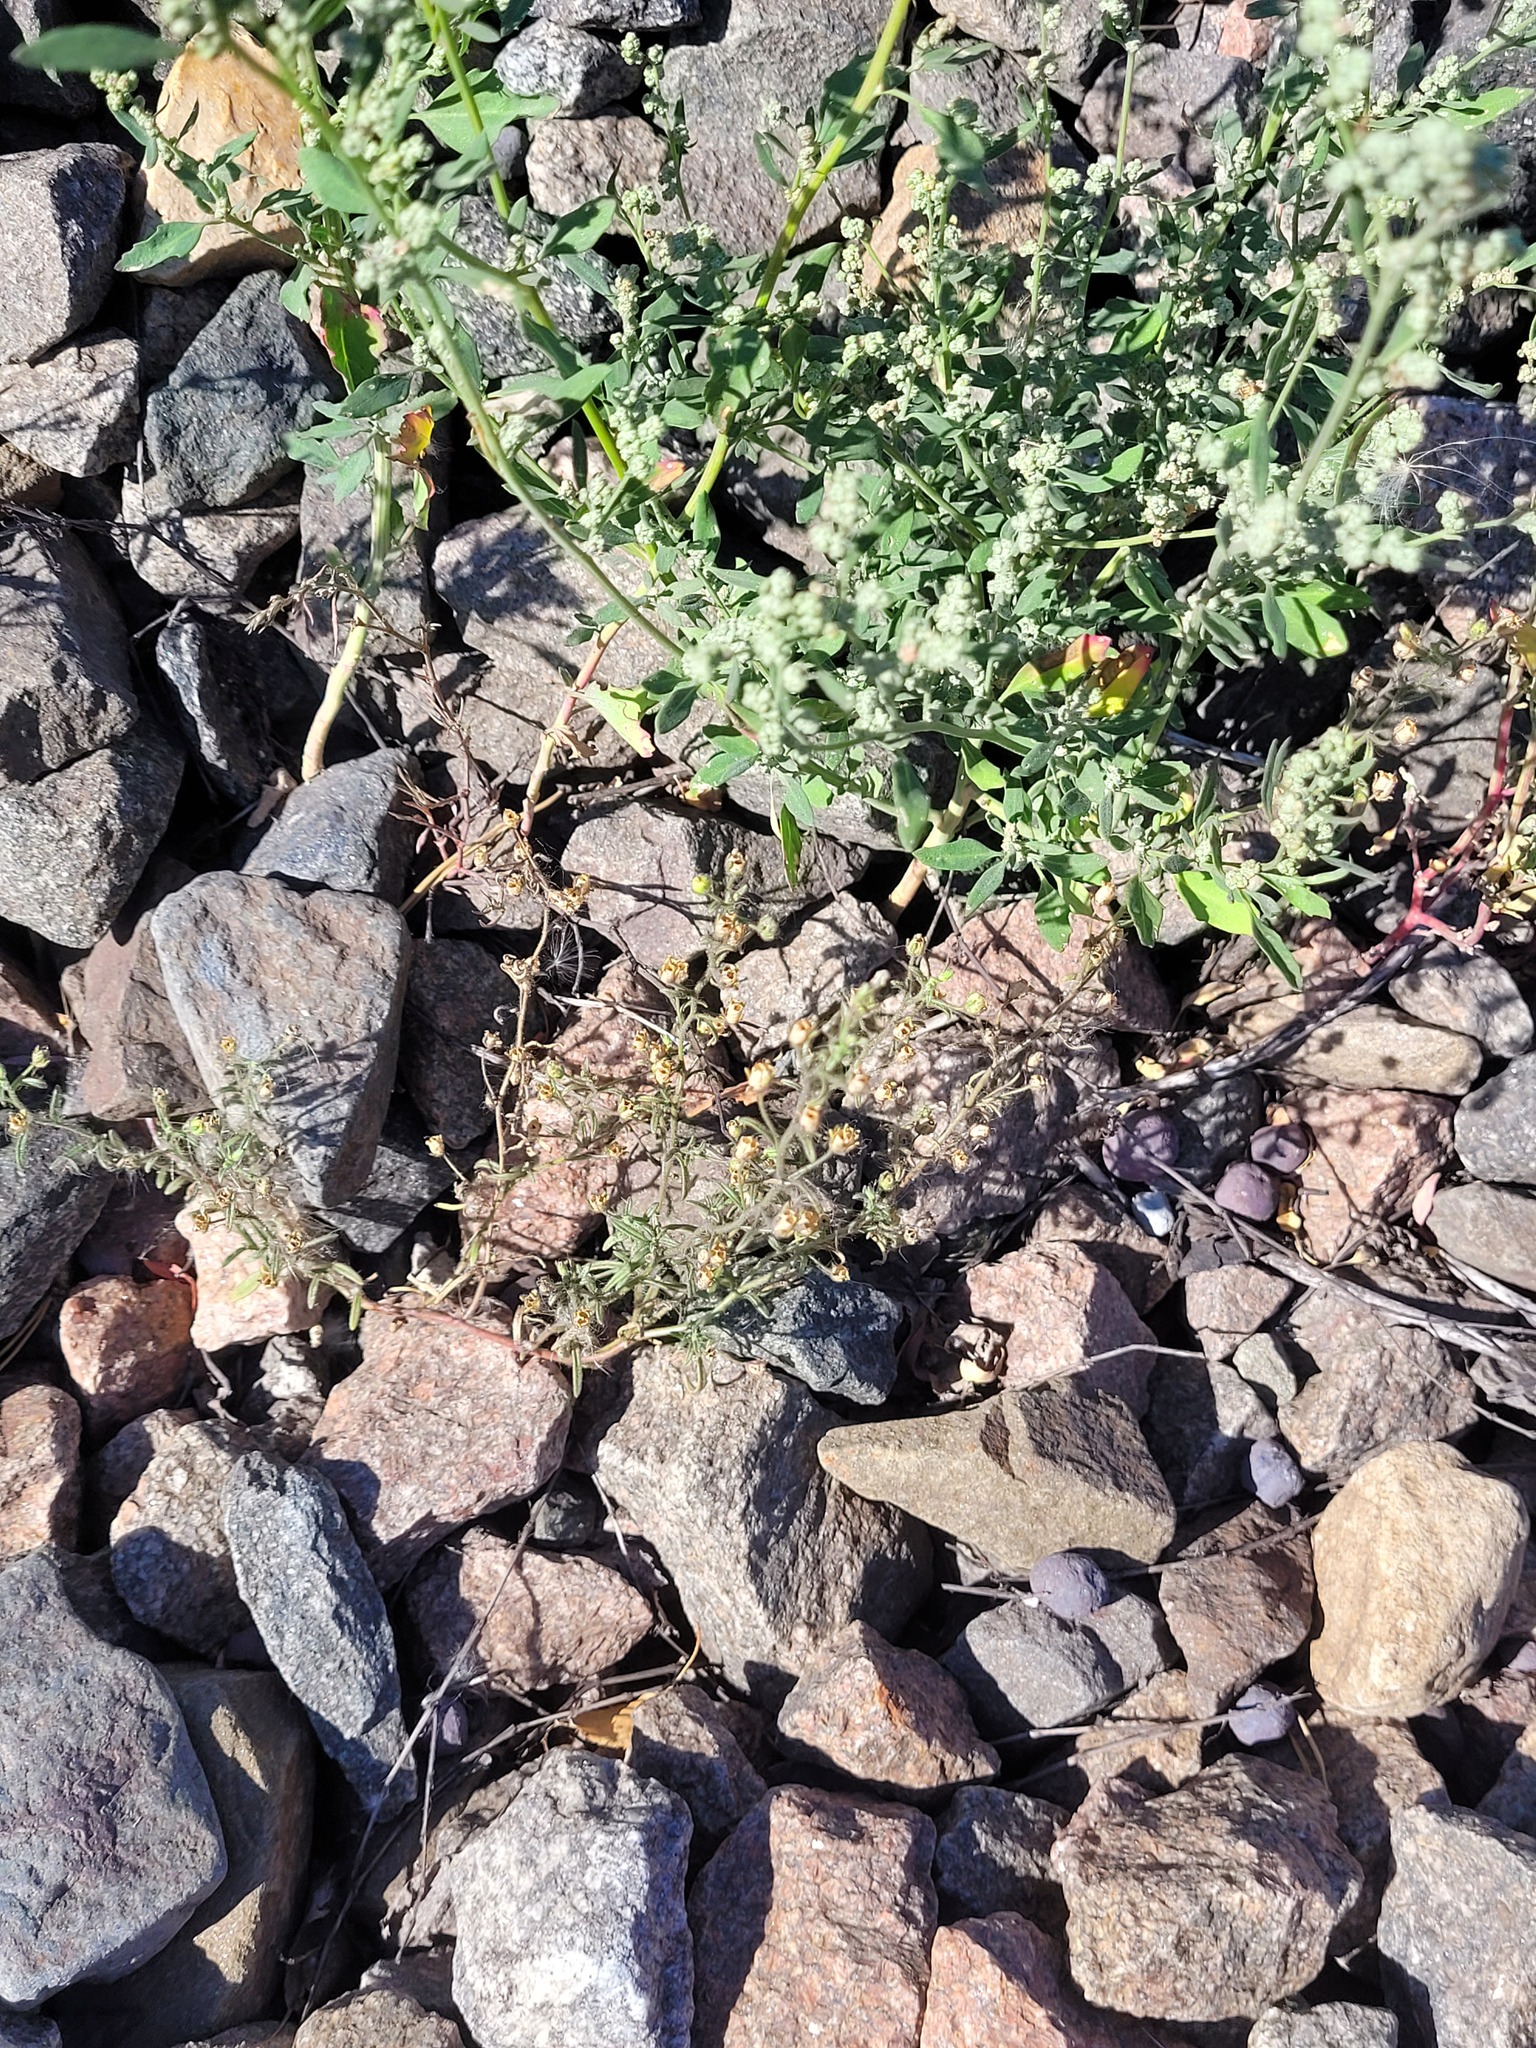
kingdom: Plantae
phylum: Tracheophyta
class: Magnoliopsida
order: Lamiales
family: Plantaginaceae
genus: Chaenorhinum
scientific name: Chaenorhinum minus
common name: Dwarf snapdragon
